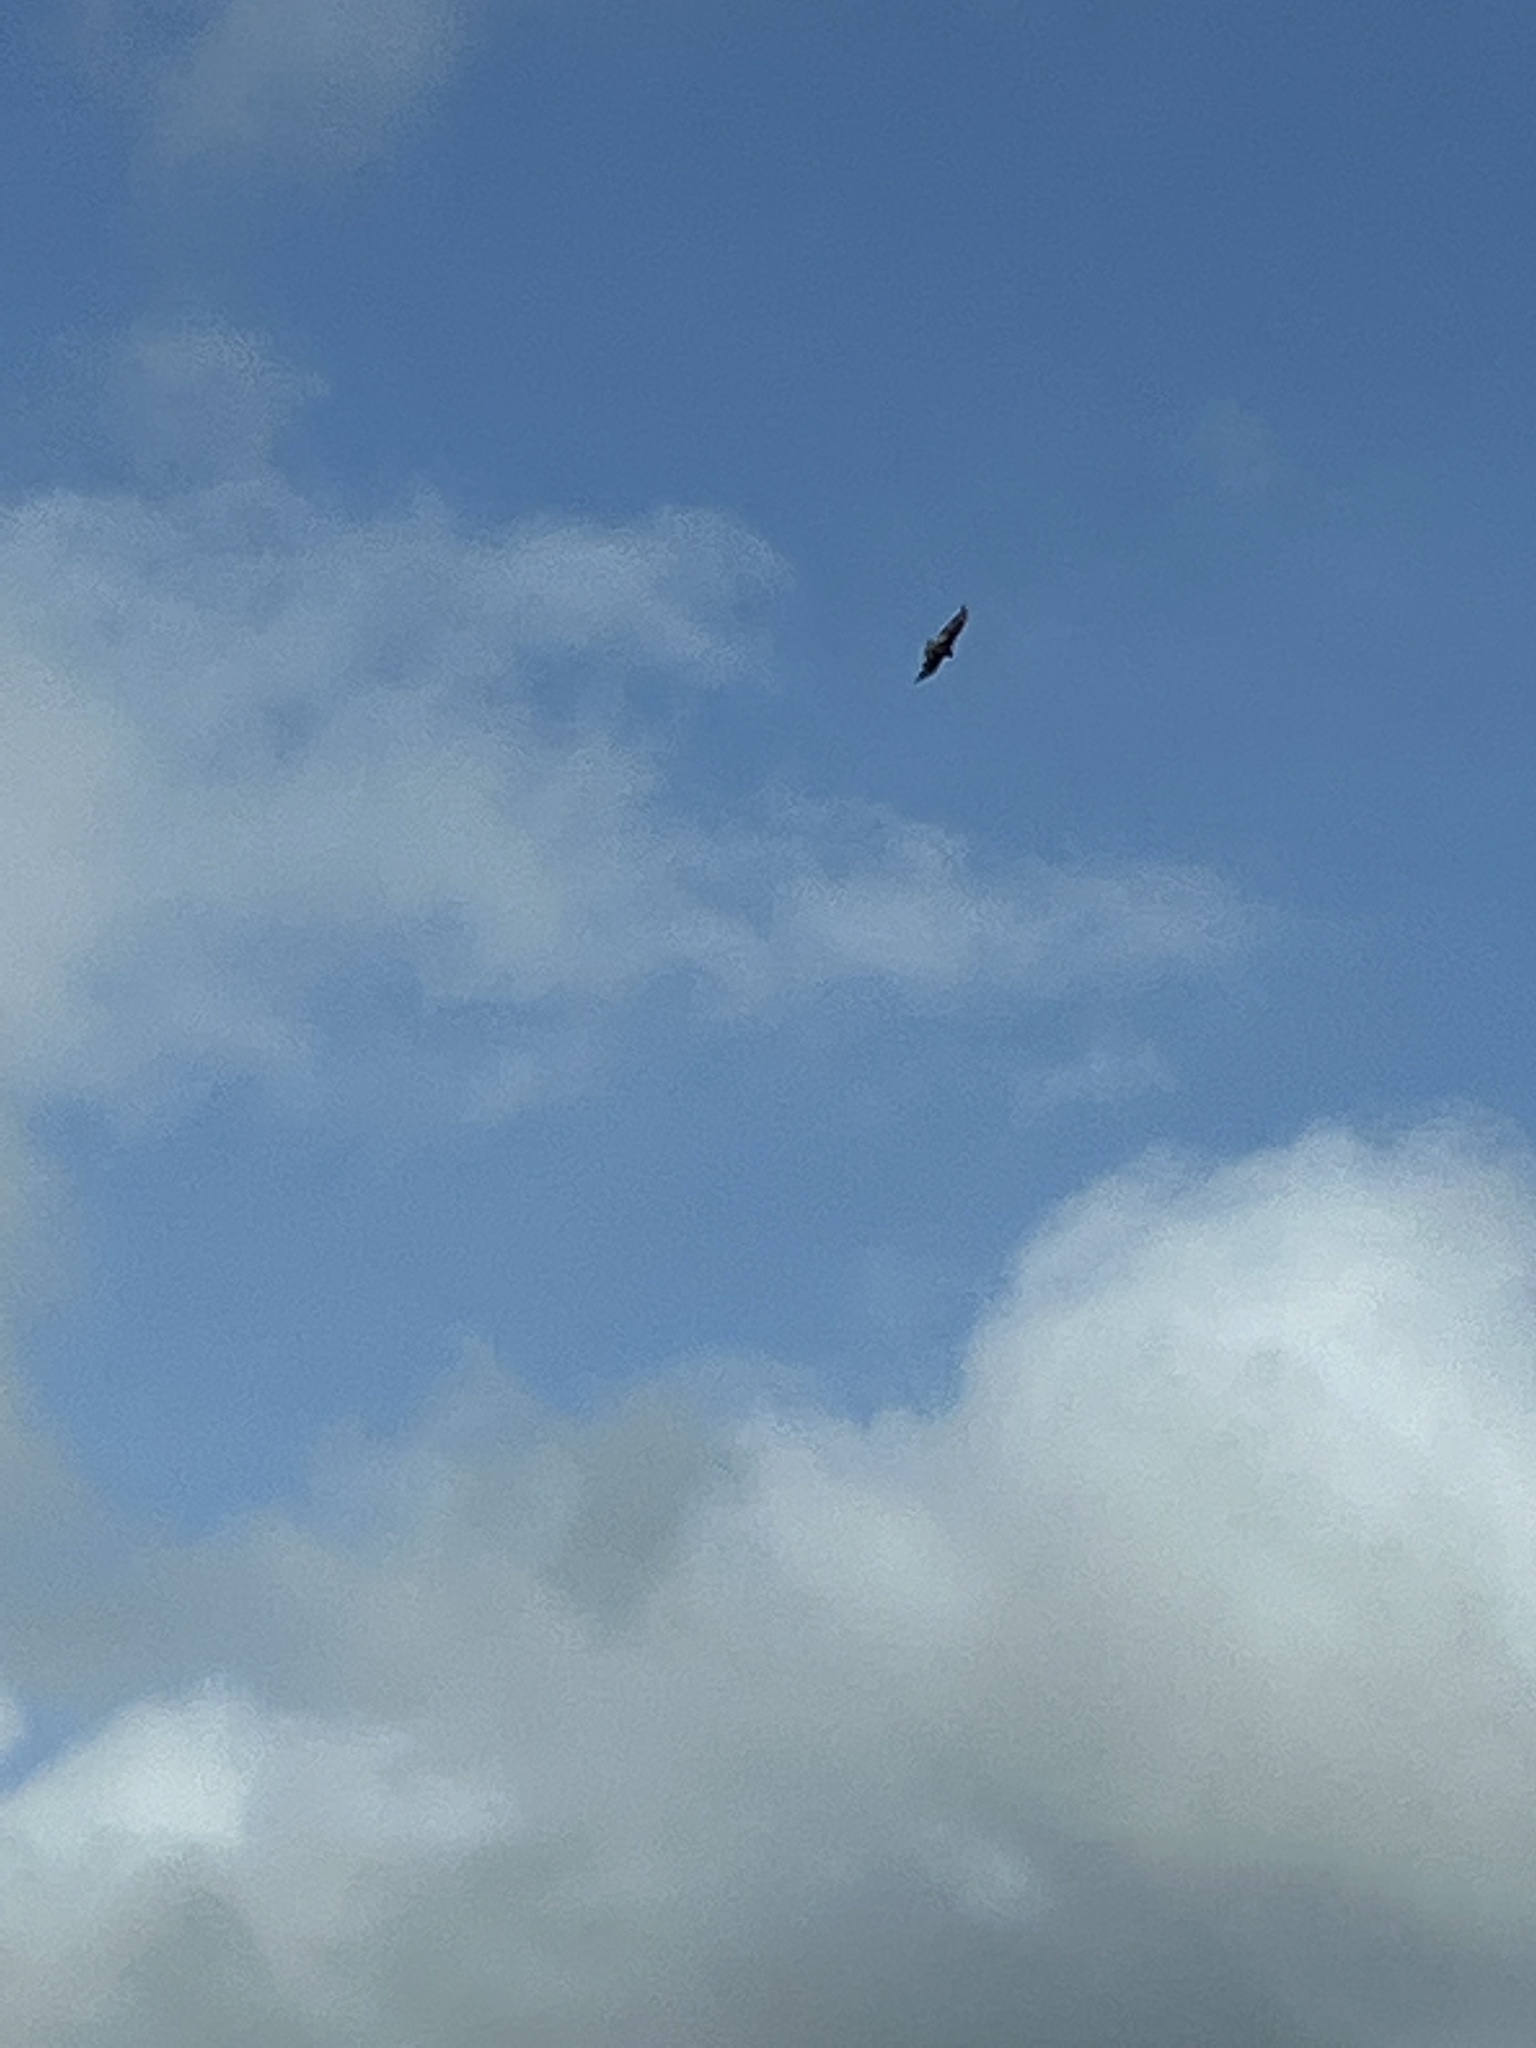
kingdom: Animalia
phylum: Chordata
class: Aves
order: Accipitriformes
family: Cathartidae
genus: Cathartes
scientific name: Cathartes aura
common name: Turkey vulture
